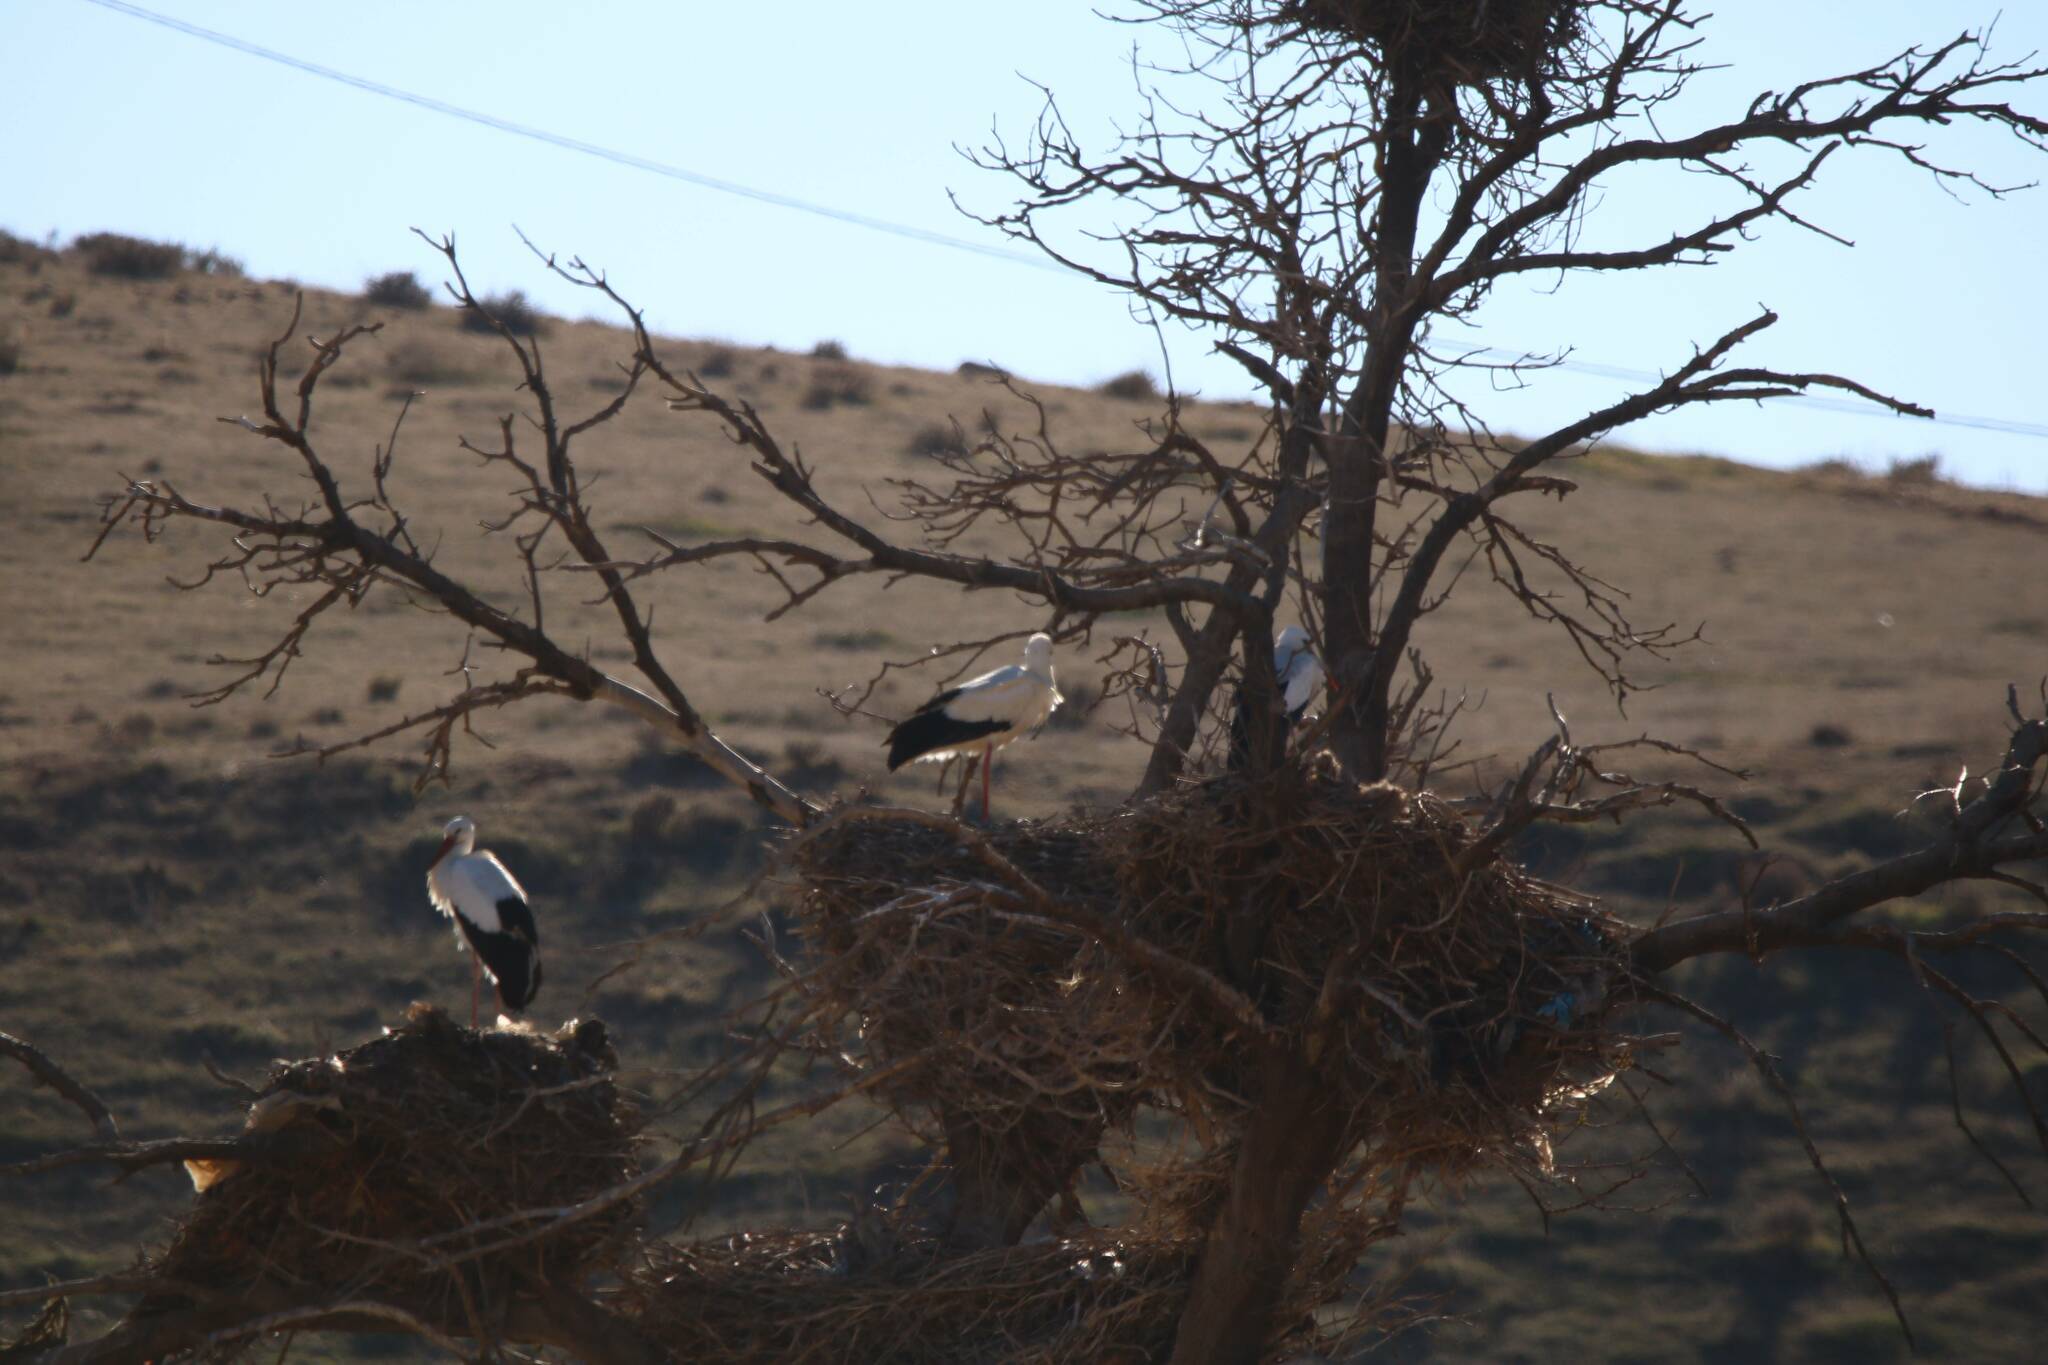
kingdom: Animalia
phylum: Chordata
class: Aves
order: Ciconiiformes
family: Ciconiidae
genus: Ciconia
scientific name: Ciconia ciconia
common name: White stork
